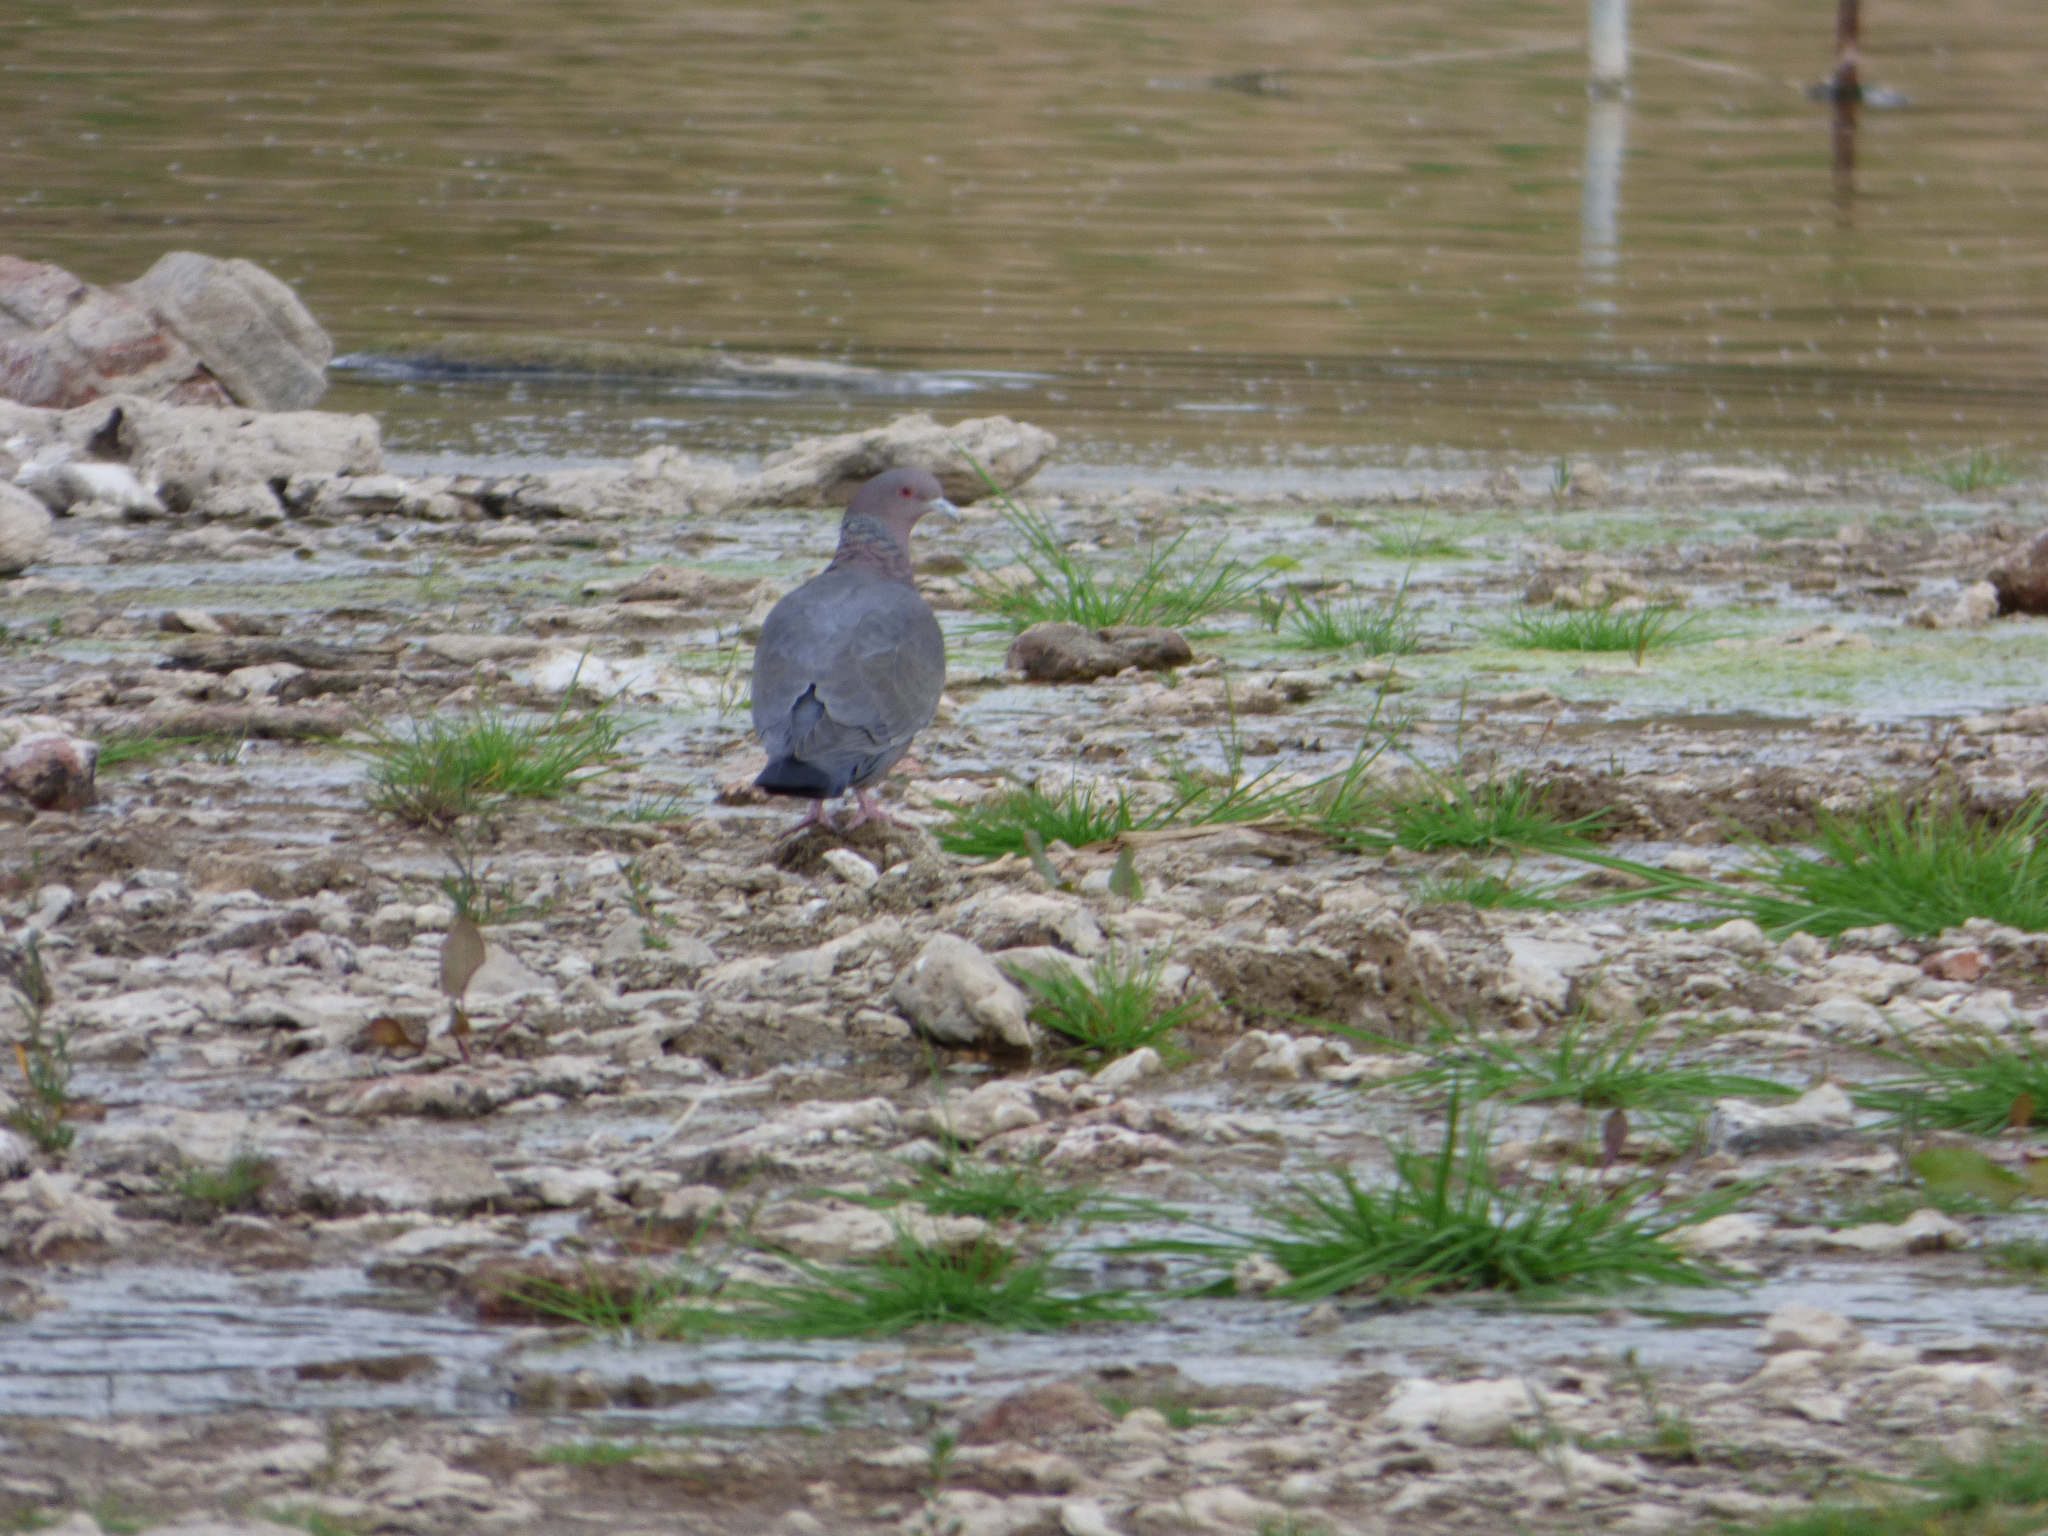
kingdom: Animalia
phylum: Chordata
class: Aves
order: Columbiformes
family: Columbidae
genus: Patagioenas
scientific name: Patagioenas picazuro
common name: Picazuro pigeon
